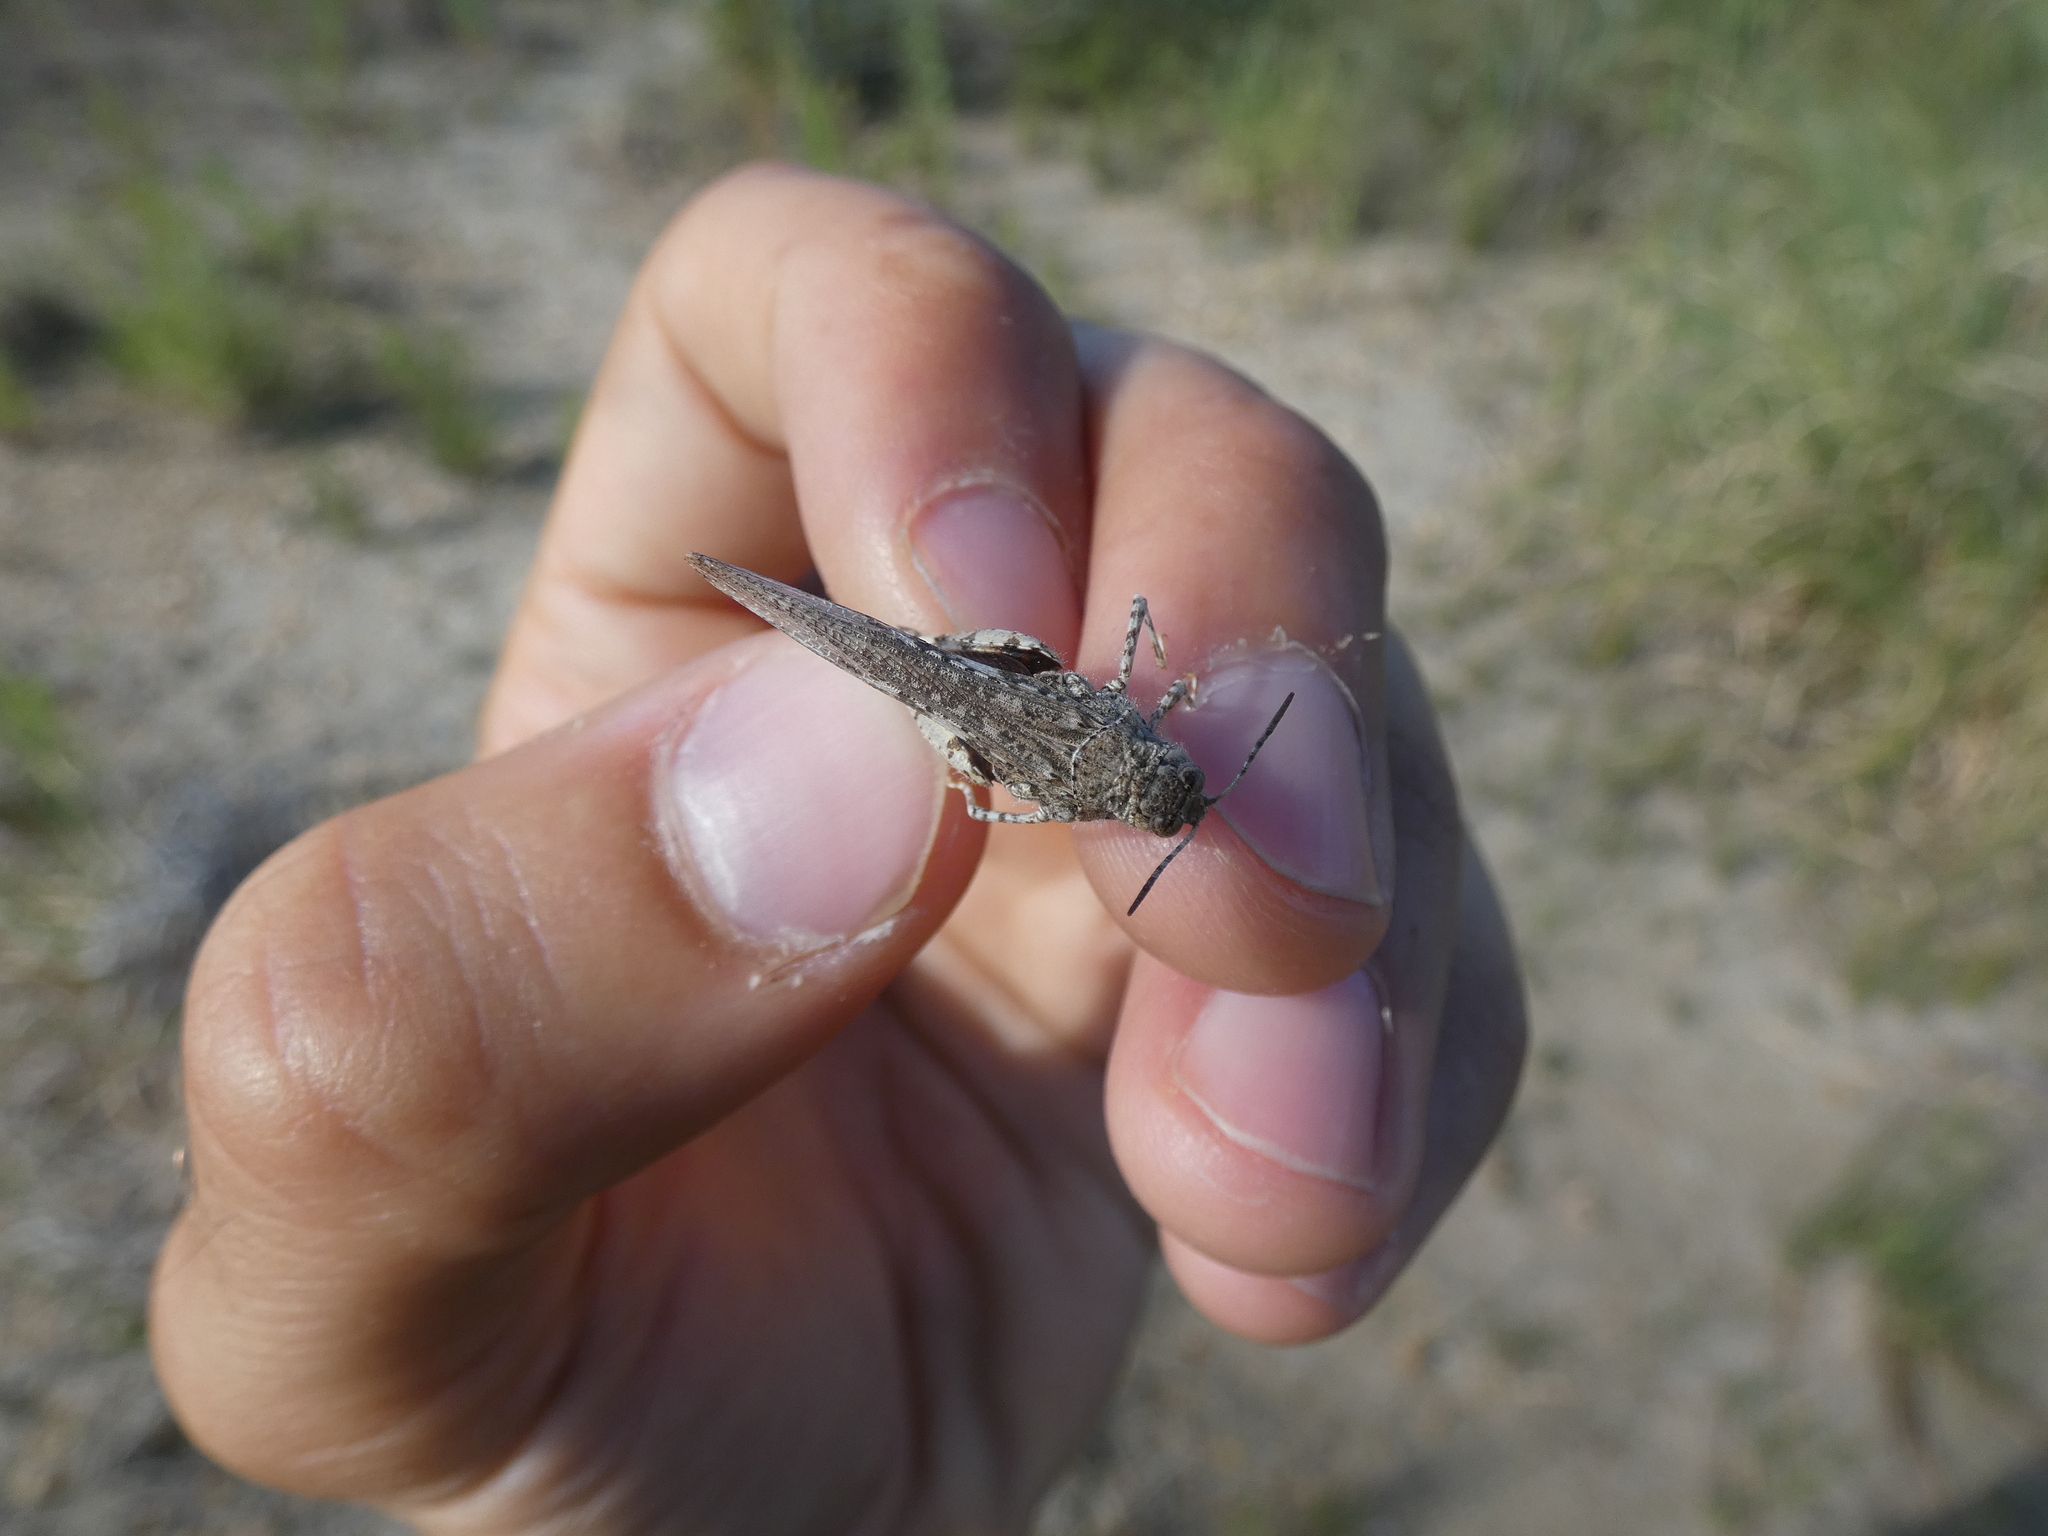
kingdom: Animalia
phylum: Arthropoda
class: Insecta
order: Orthoptera
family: Acrididae
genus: Acrotylus
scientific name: Acrotylus insubricus
